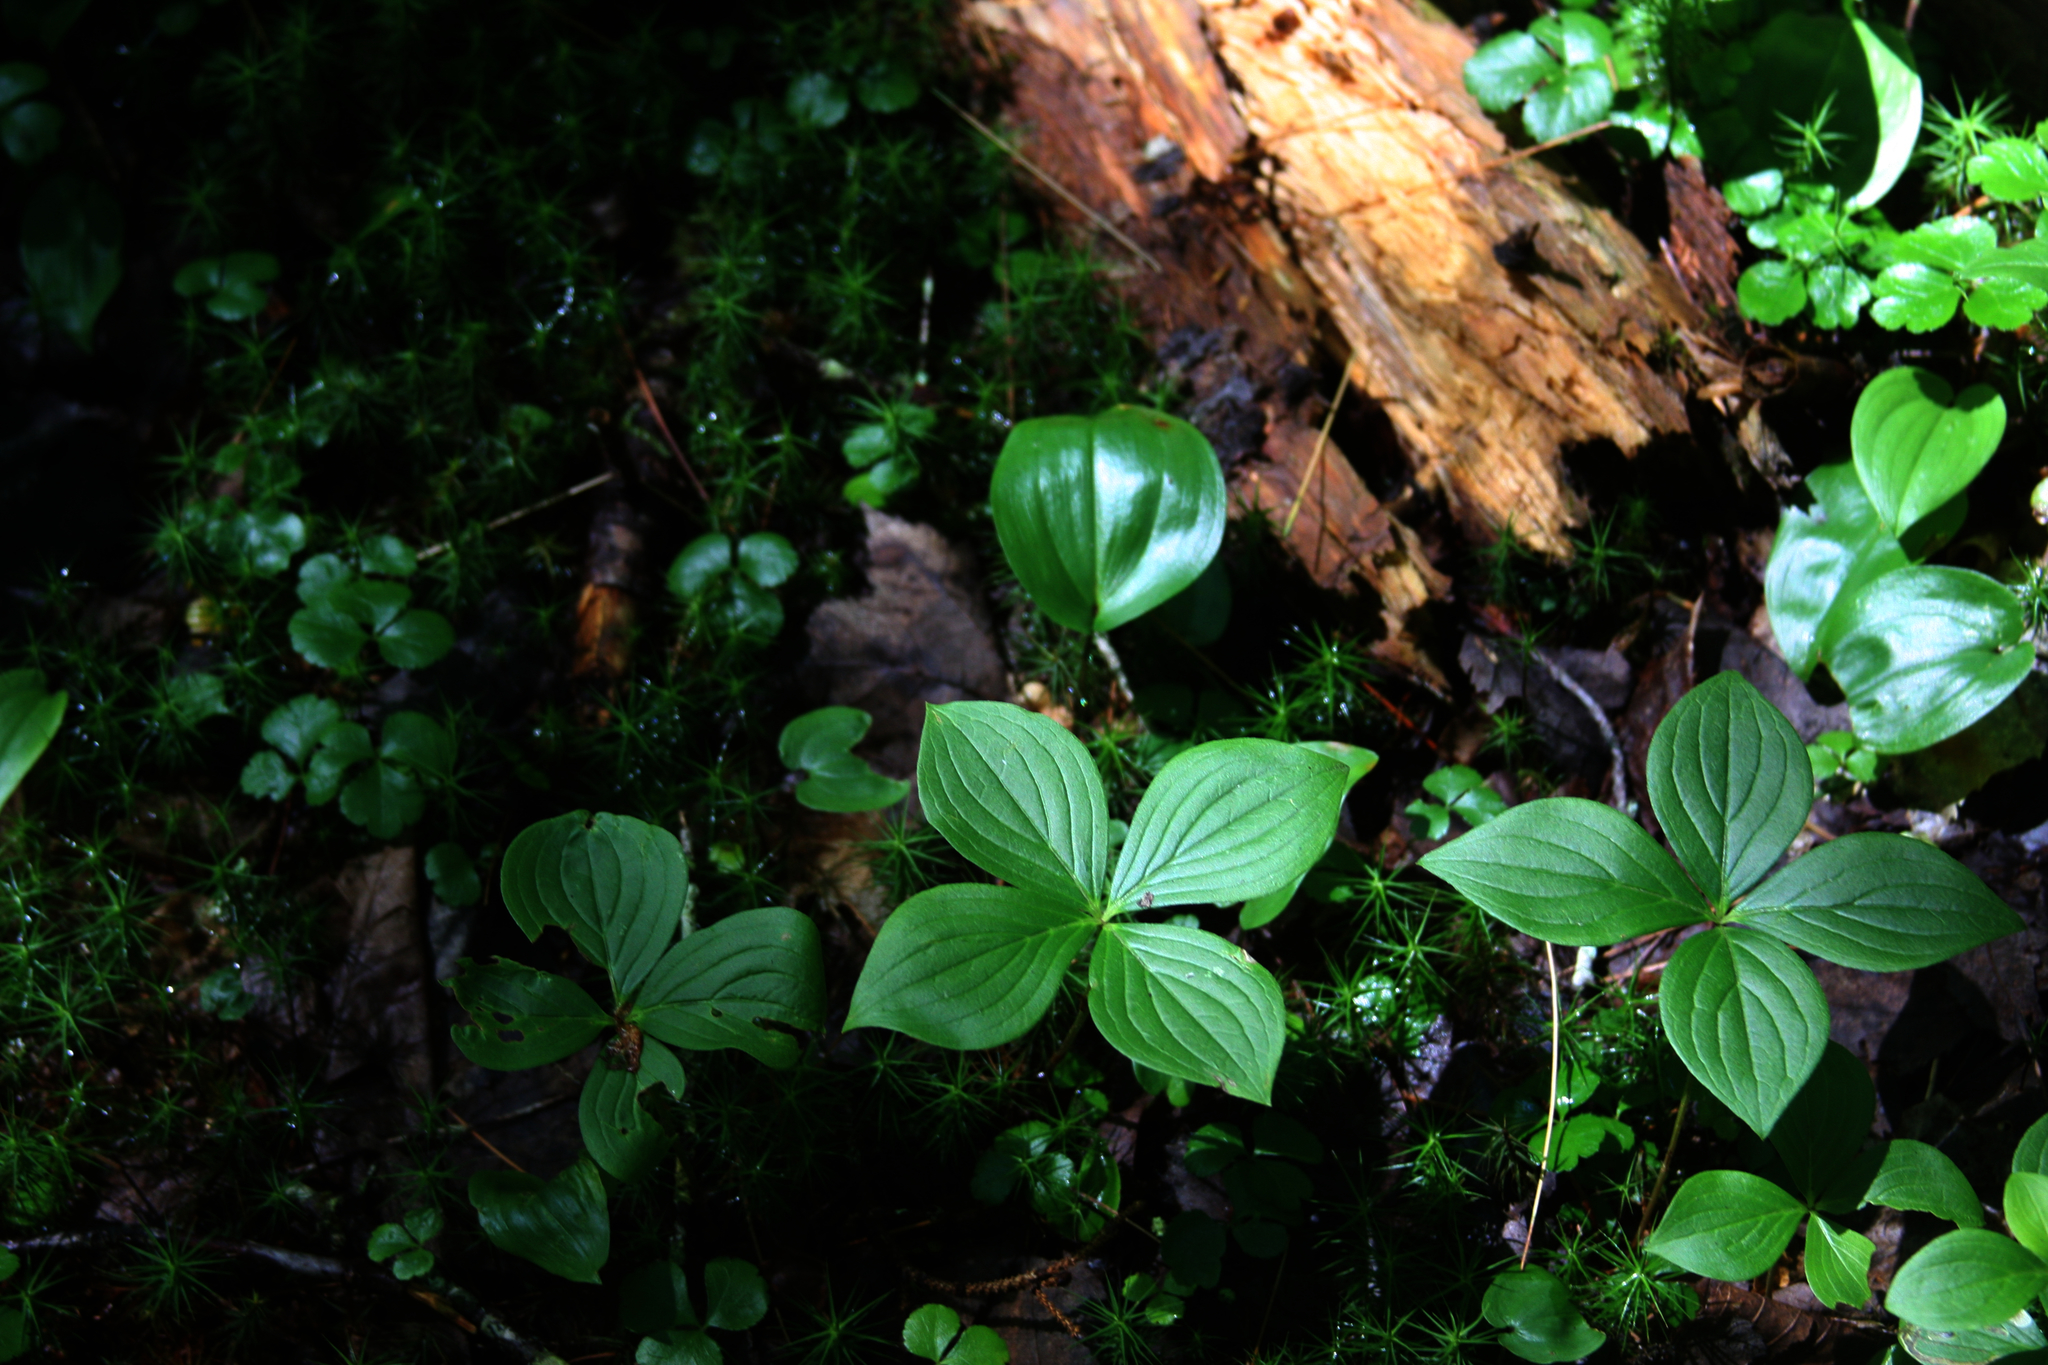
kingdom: Plantae
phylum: Tracheophyta
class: Magnoliopsida
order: Cornales
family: Cornaceae
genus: Cornus
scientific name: Cornus canadensis
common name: Creeping dogwood
